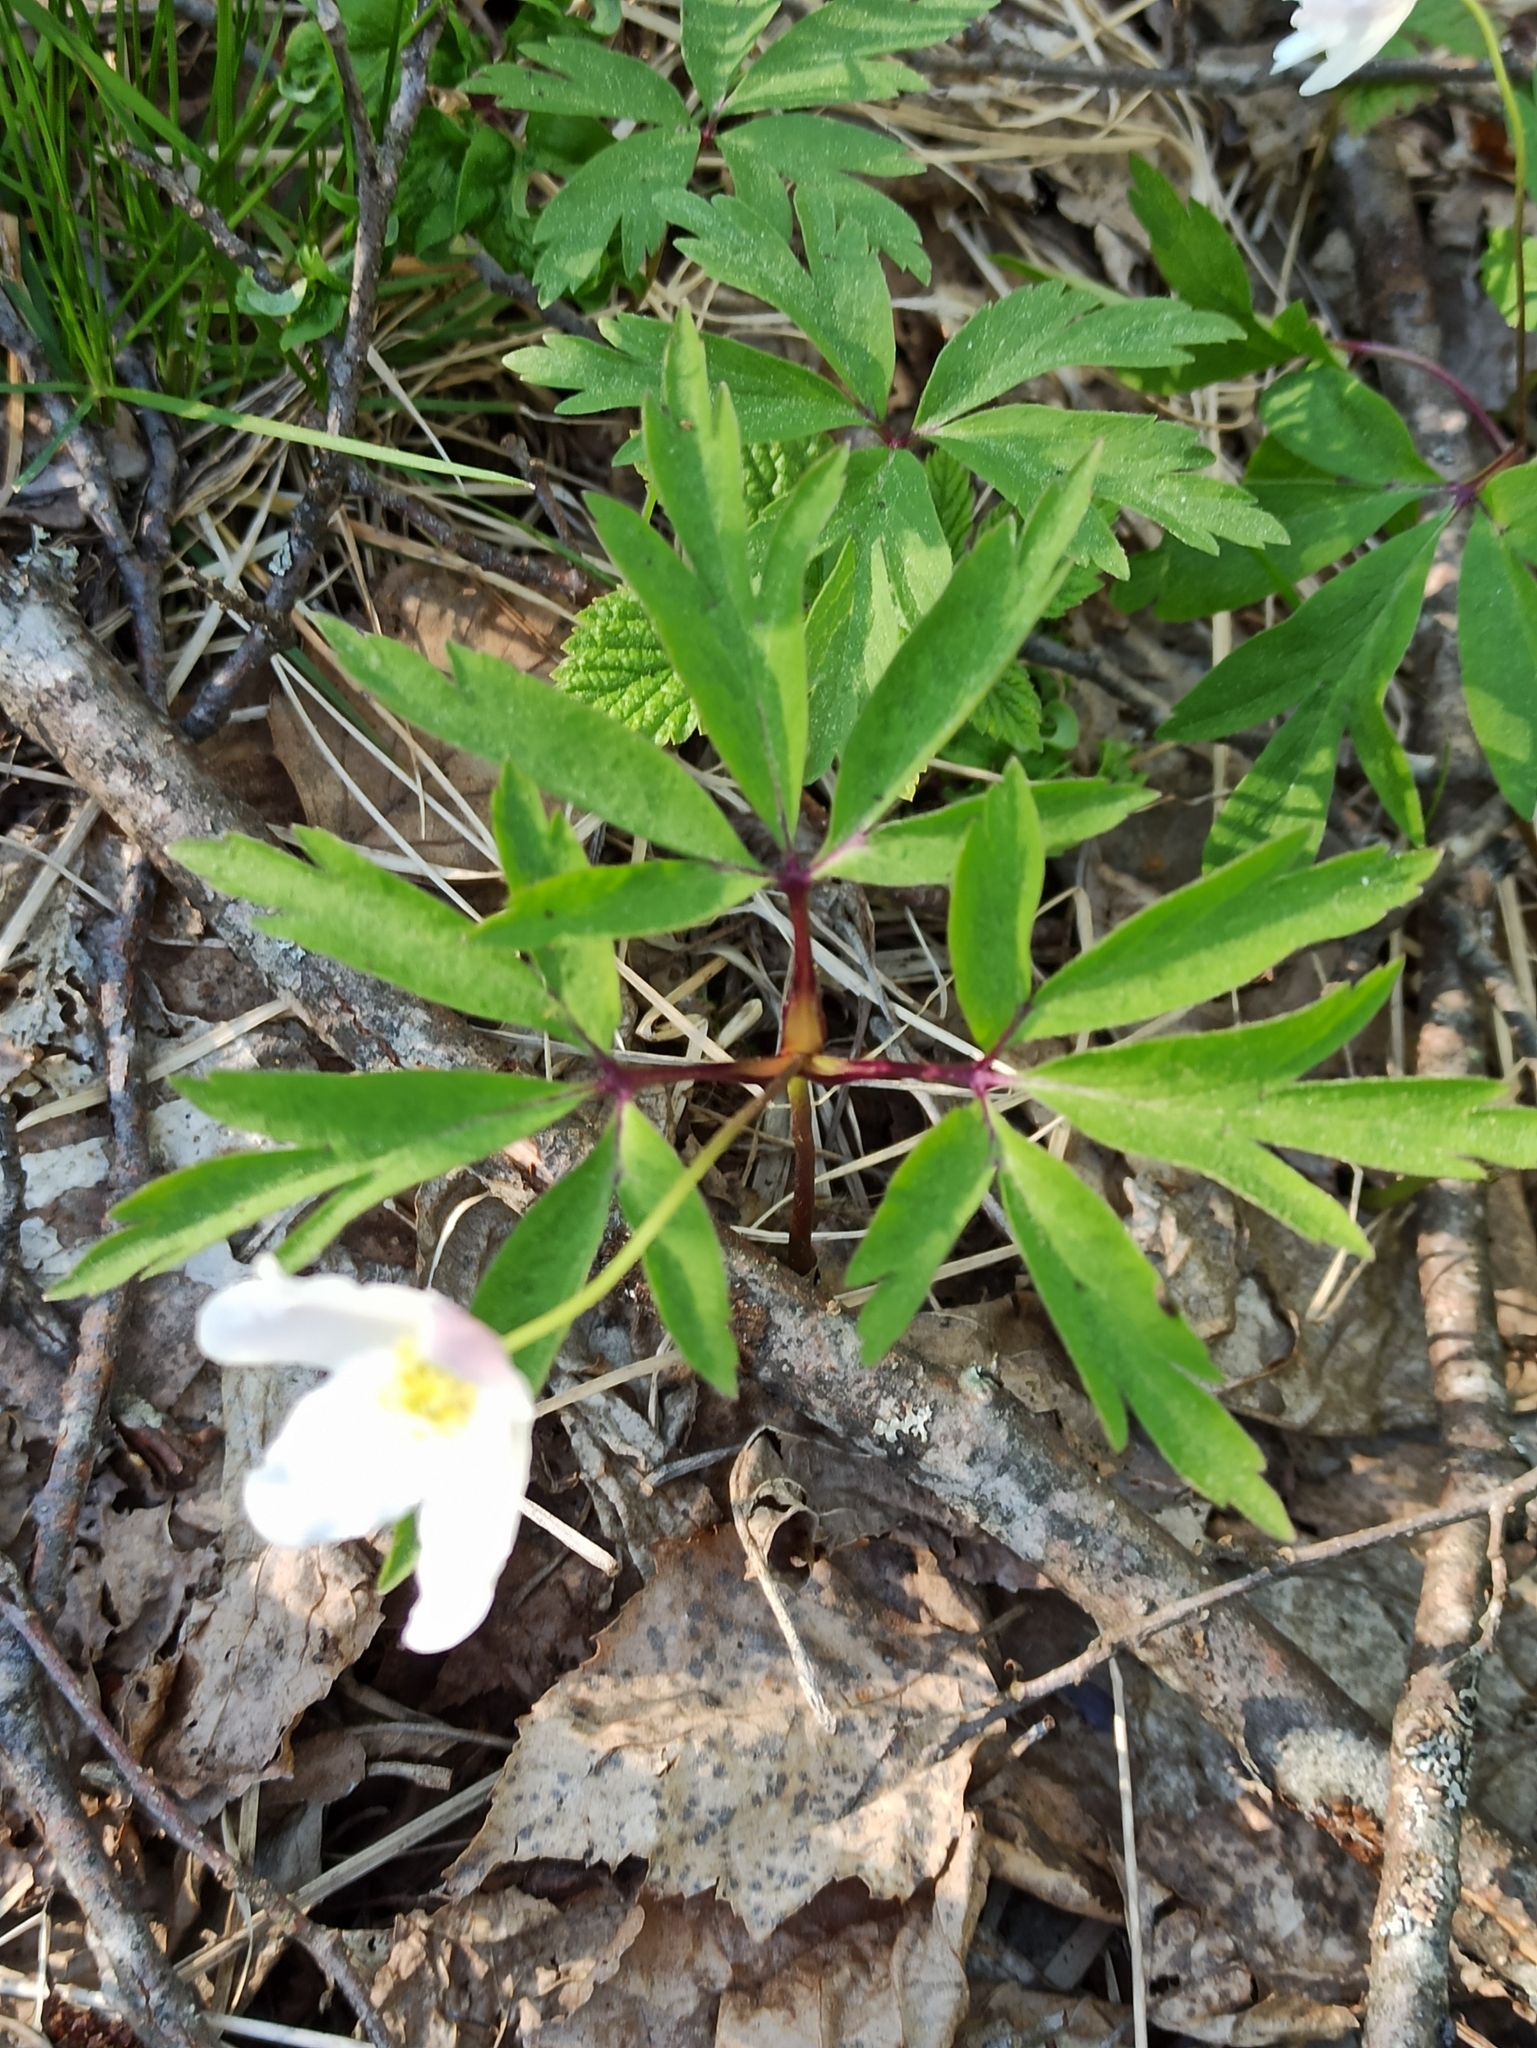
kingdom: Plantae
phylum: Tracheophyta
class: Magnoliopsida
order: Ranunculales
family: Ranunculaceae
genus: Anemone
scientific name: Anemone nemorosa
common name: Wood anemone
